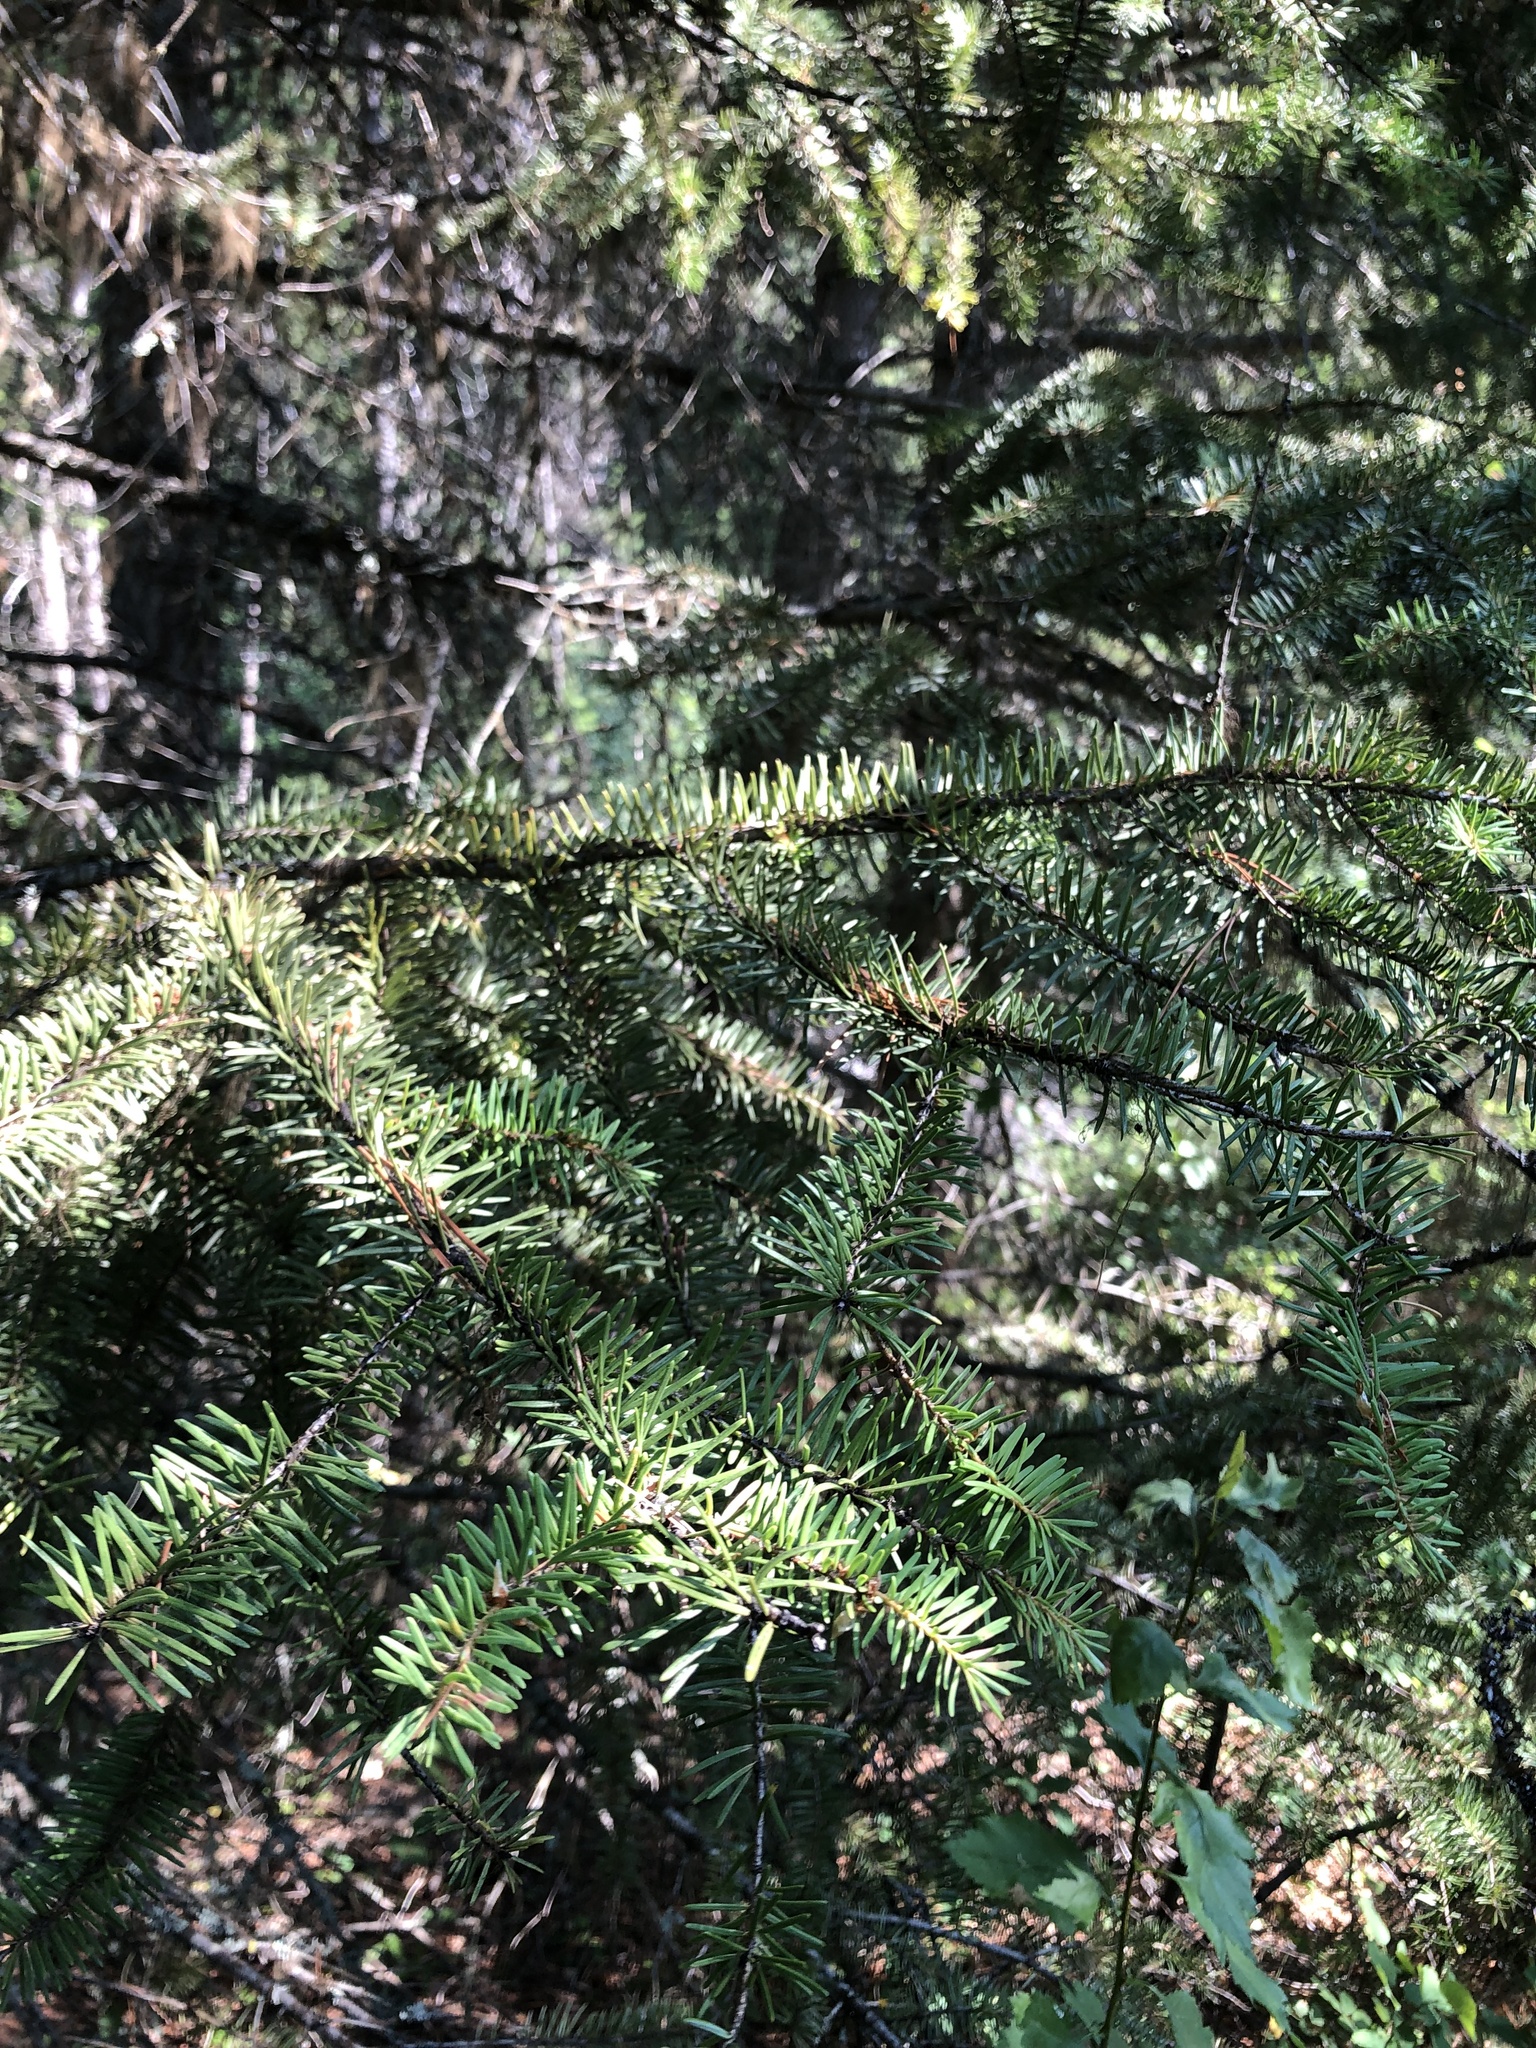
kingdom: Plantae
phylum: Tracheophyta
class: Pinopsida
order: Pinales
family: Pinaceae
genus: Pseudotsuga
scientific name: Pseudotsuga menziesii
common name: Douglas fir
